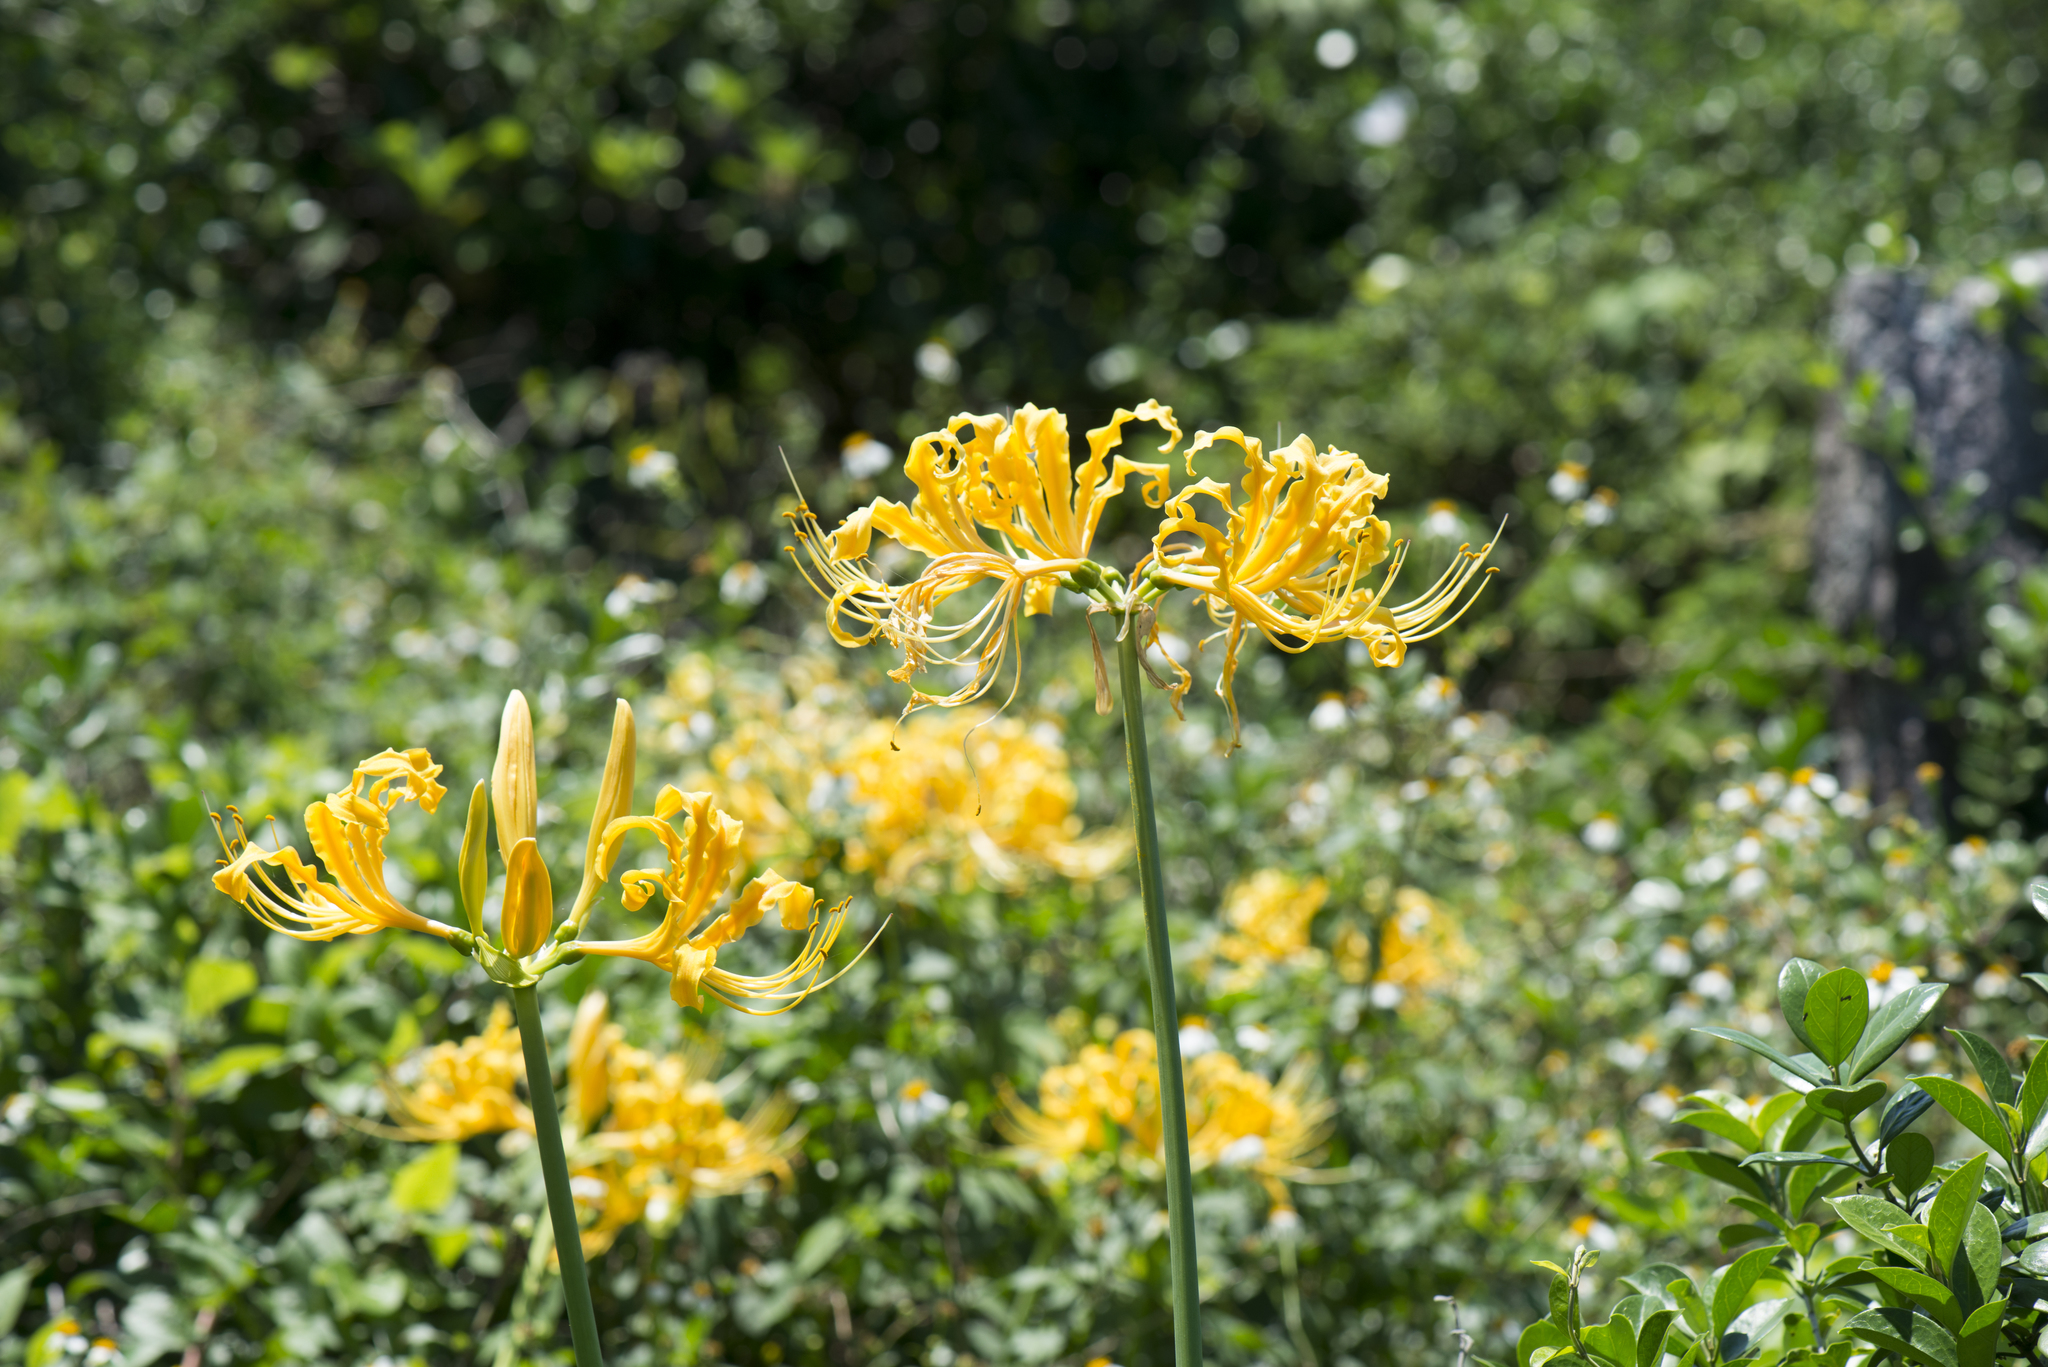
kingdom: Plantae
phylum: Tracheophyta
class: Liliopsida
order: Asparagales
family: Amaryllidaceae
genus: Lycoris
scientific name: Lycoris aurea
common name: Golden hurricane-lily
